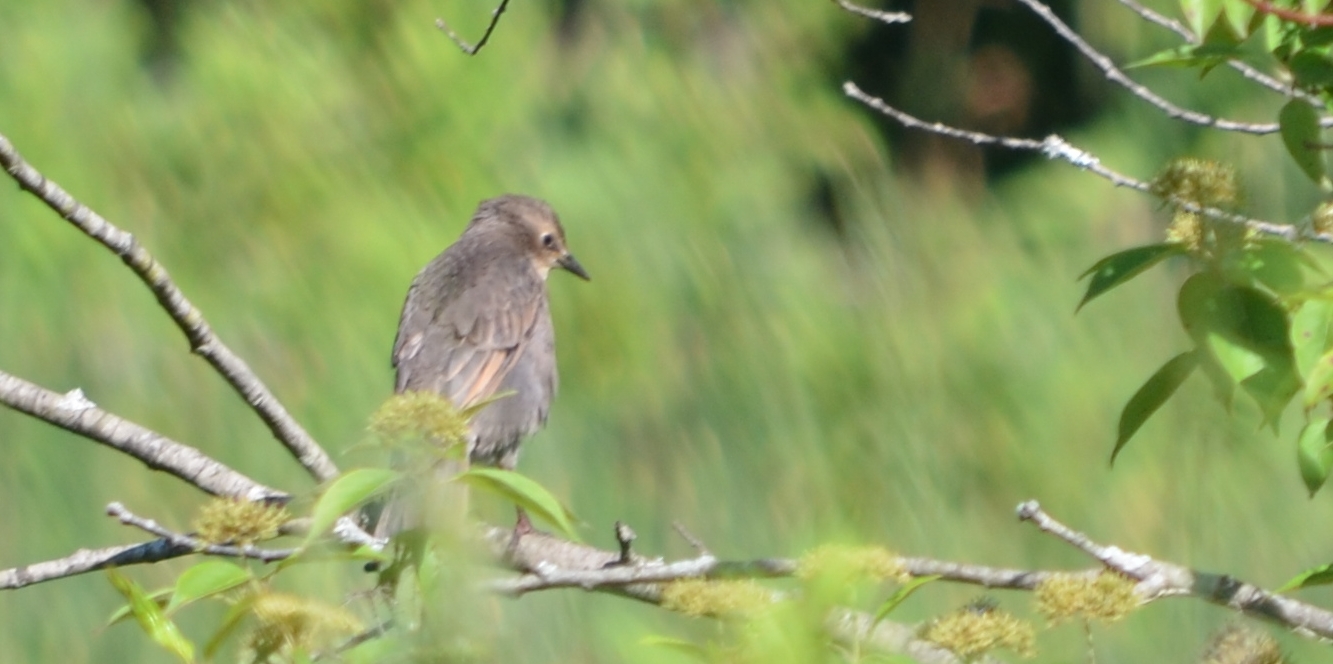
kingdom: Animalia
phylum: Chordata
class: Aves
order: Passeriformes
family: Sturnidae
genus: Sturnus
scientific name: Sturnus vulgaris
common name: Common starling
